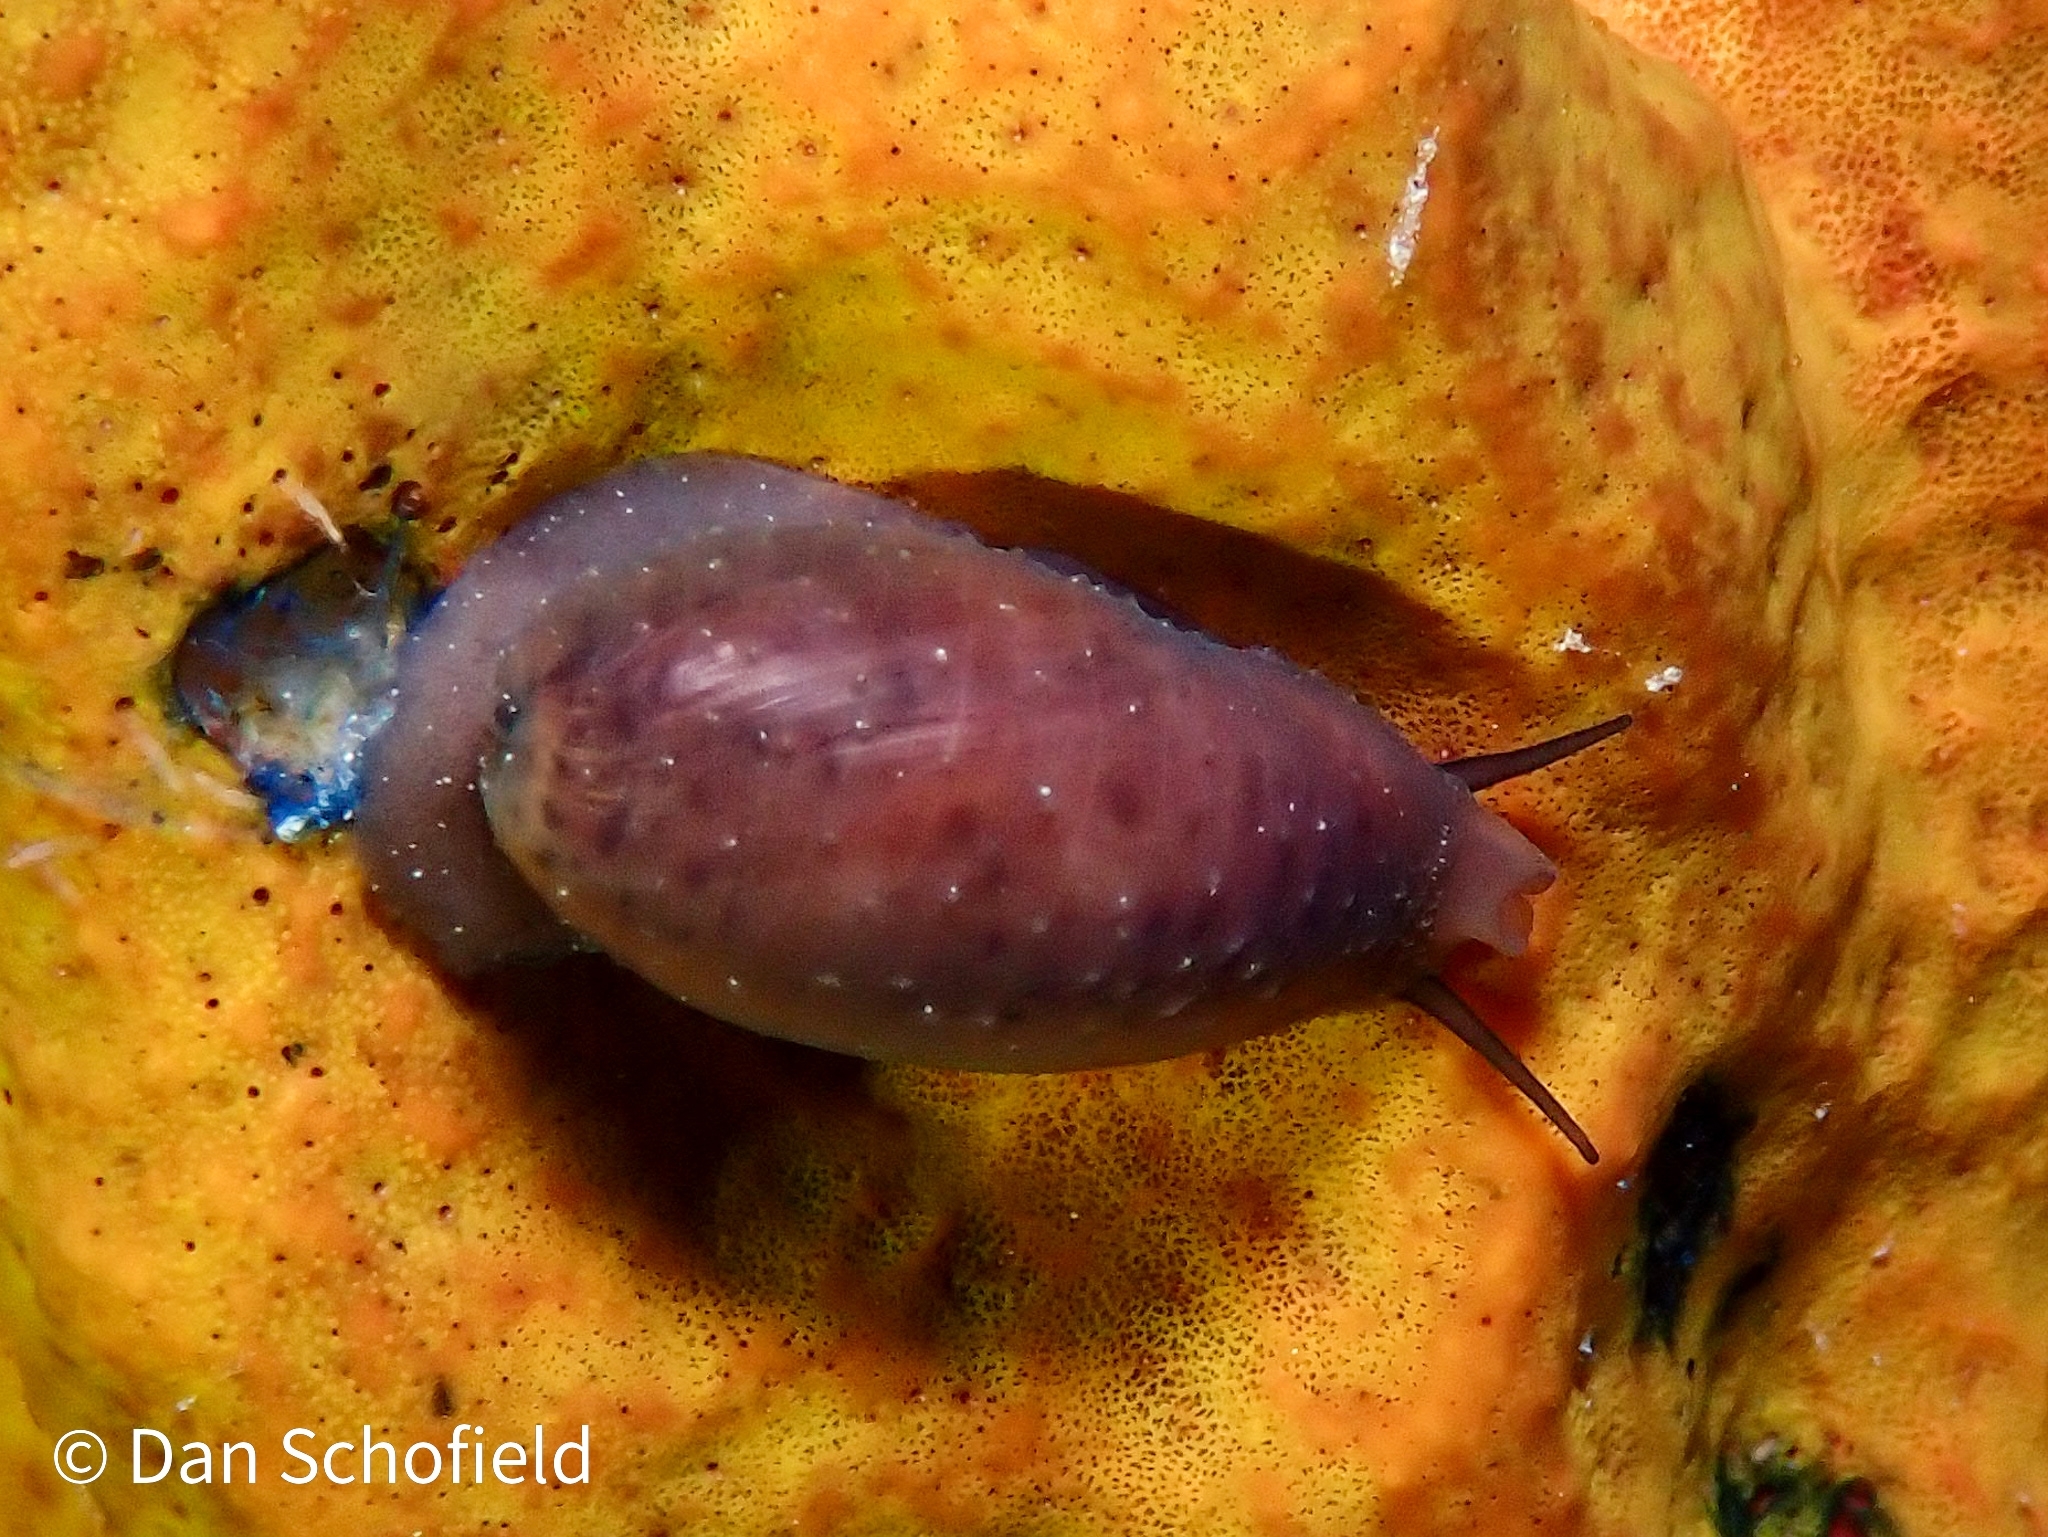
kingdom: Animalia
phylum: Mollusca
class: Gastropoda
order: Littorinimorpha
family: Cypraeidae
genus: Luria
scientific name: Luria cinerea
